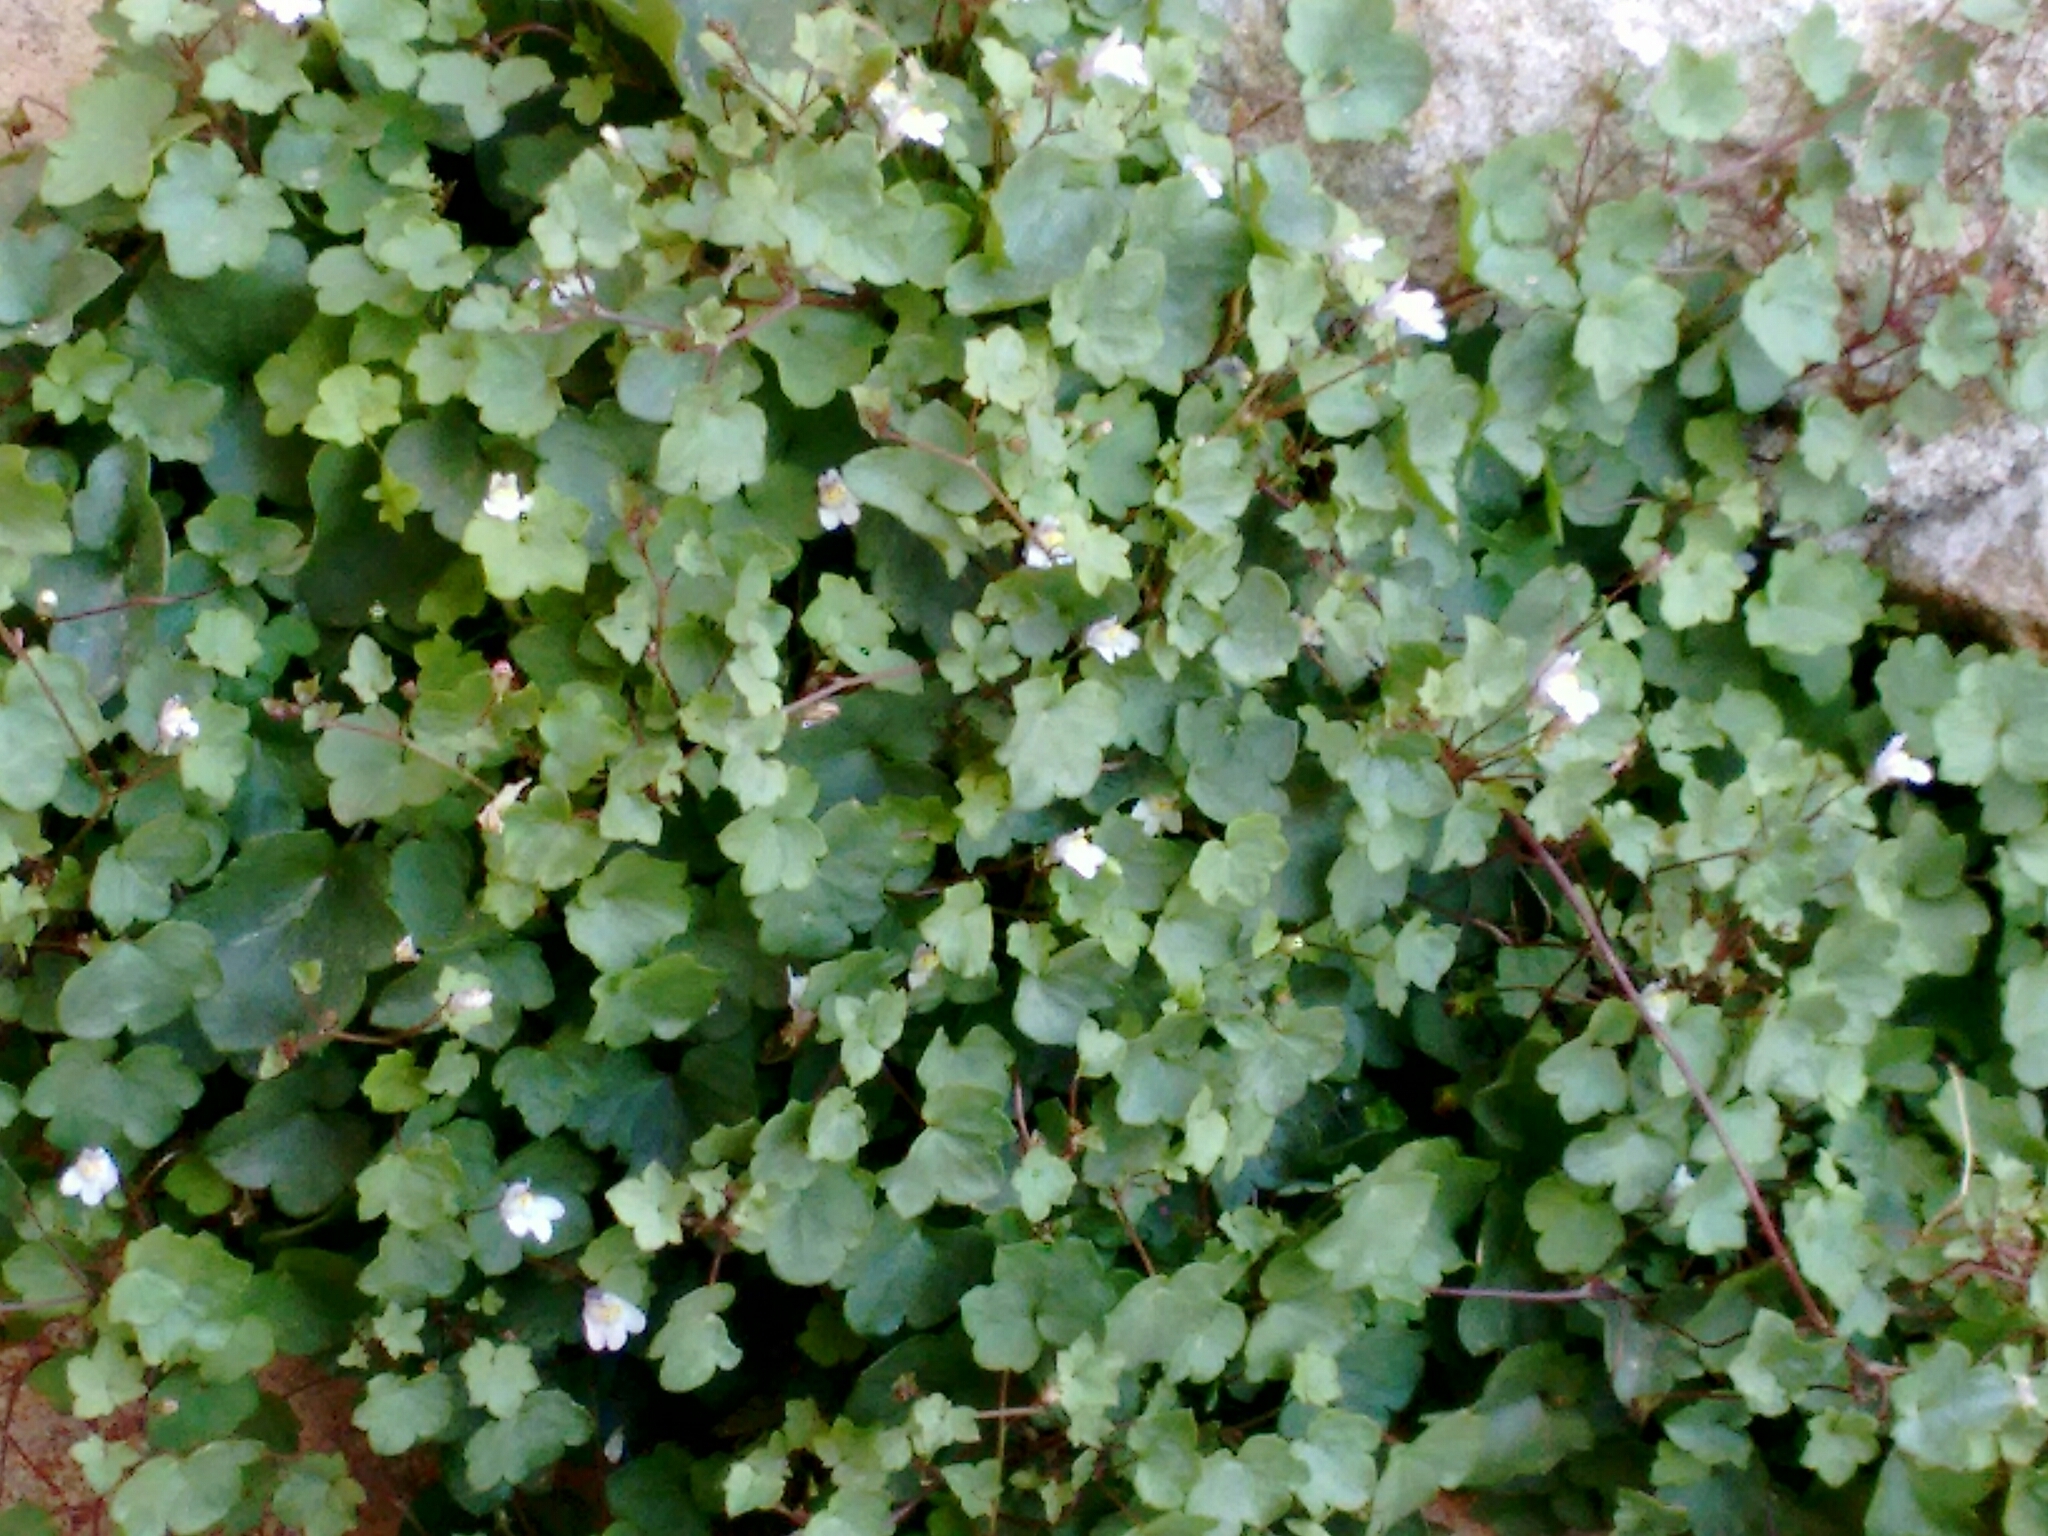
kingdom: Plantae
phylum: Tracheophyta
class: Magnoliopsida
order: Lamiales
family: Plantaginaceae
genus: Cymbalaria
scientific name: Cymbalaria muralis
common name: Ivy-leaved toadflax
